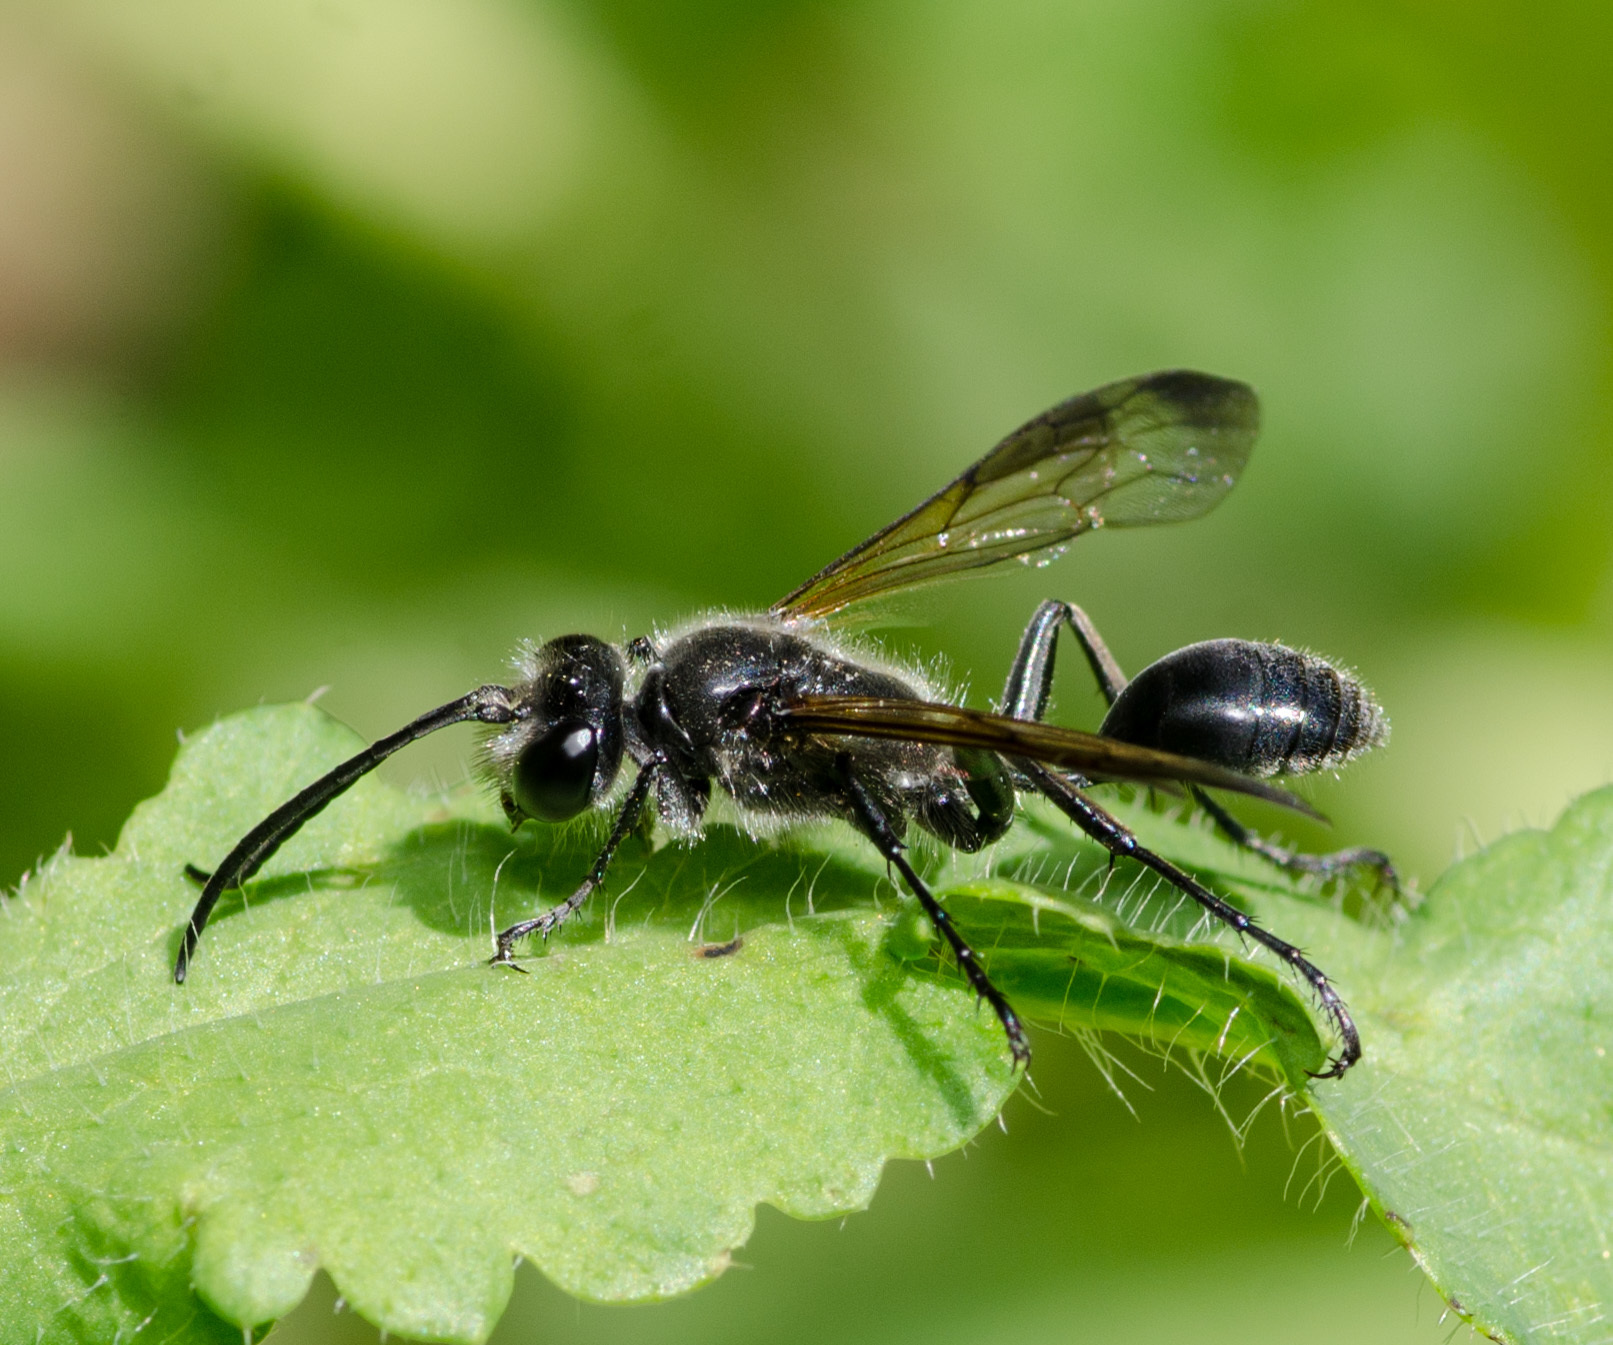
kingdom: Animalia
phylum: Arthropoda
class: Insecta
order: Hymenoptera
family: Sphecidae
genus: Isodontia
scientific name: Isodontia mexicana
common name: Mud dauber
